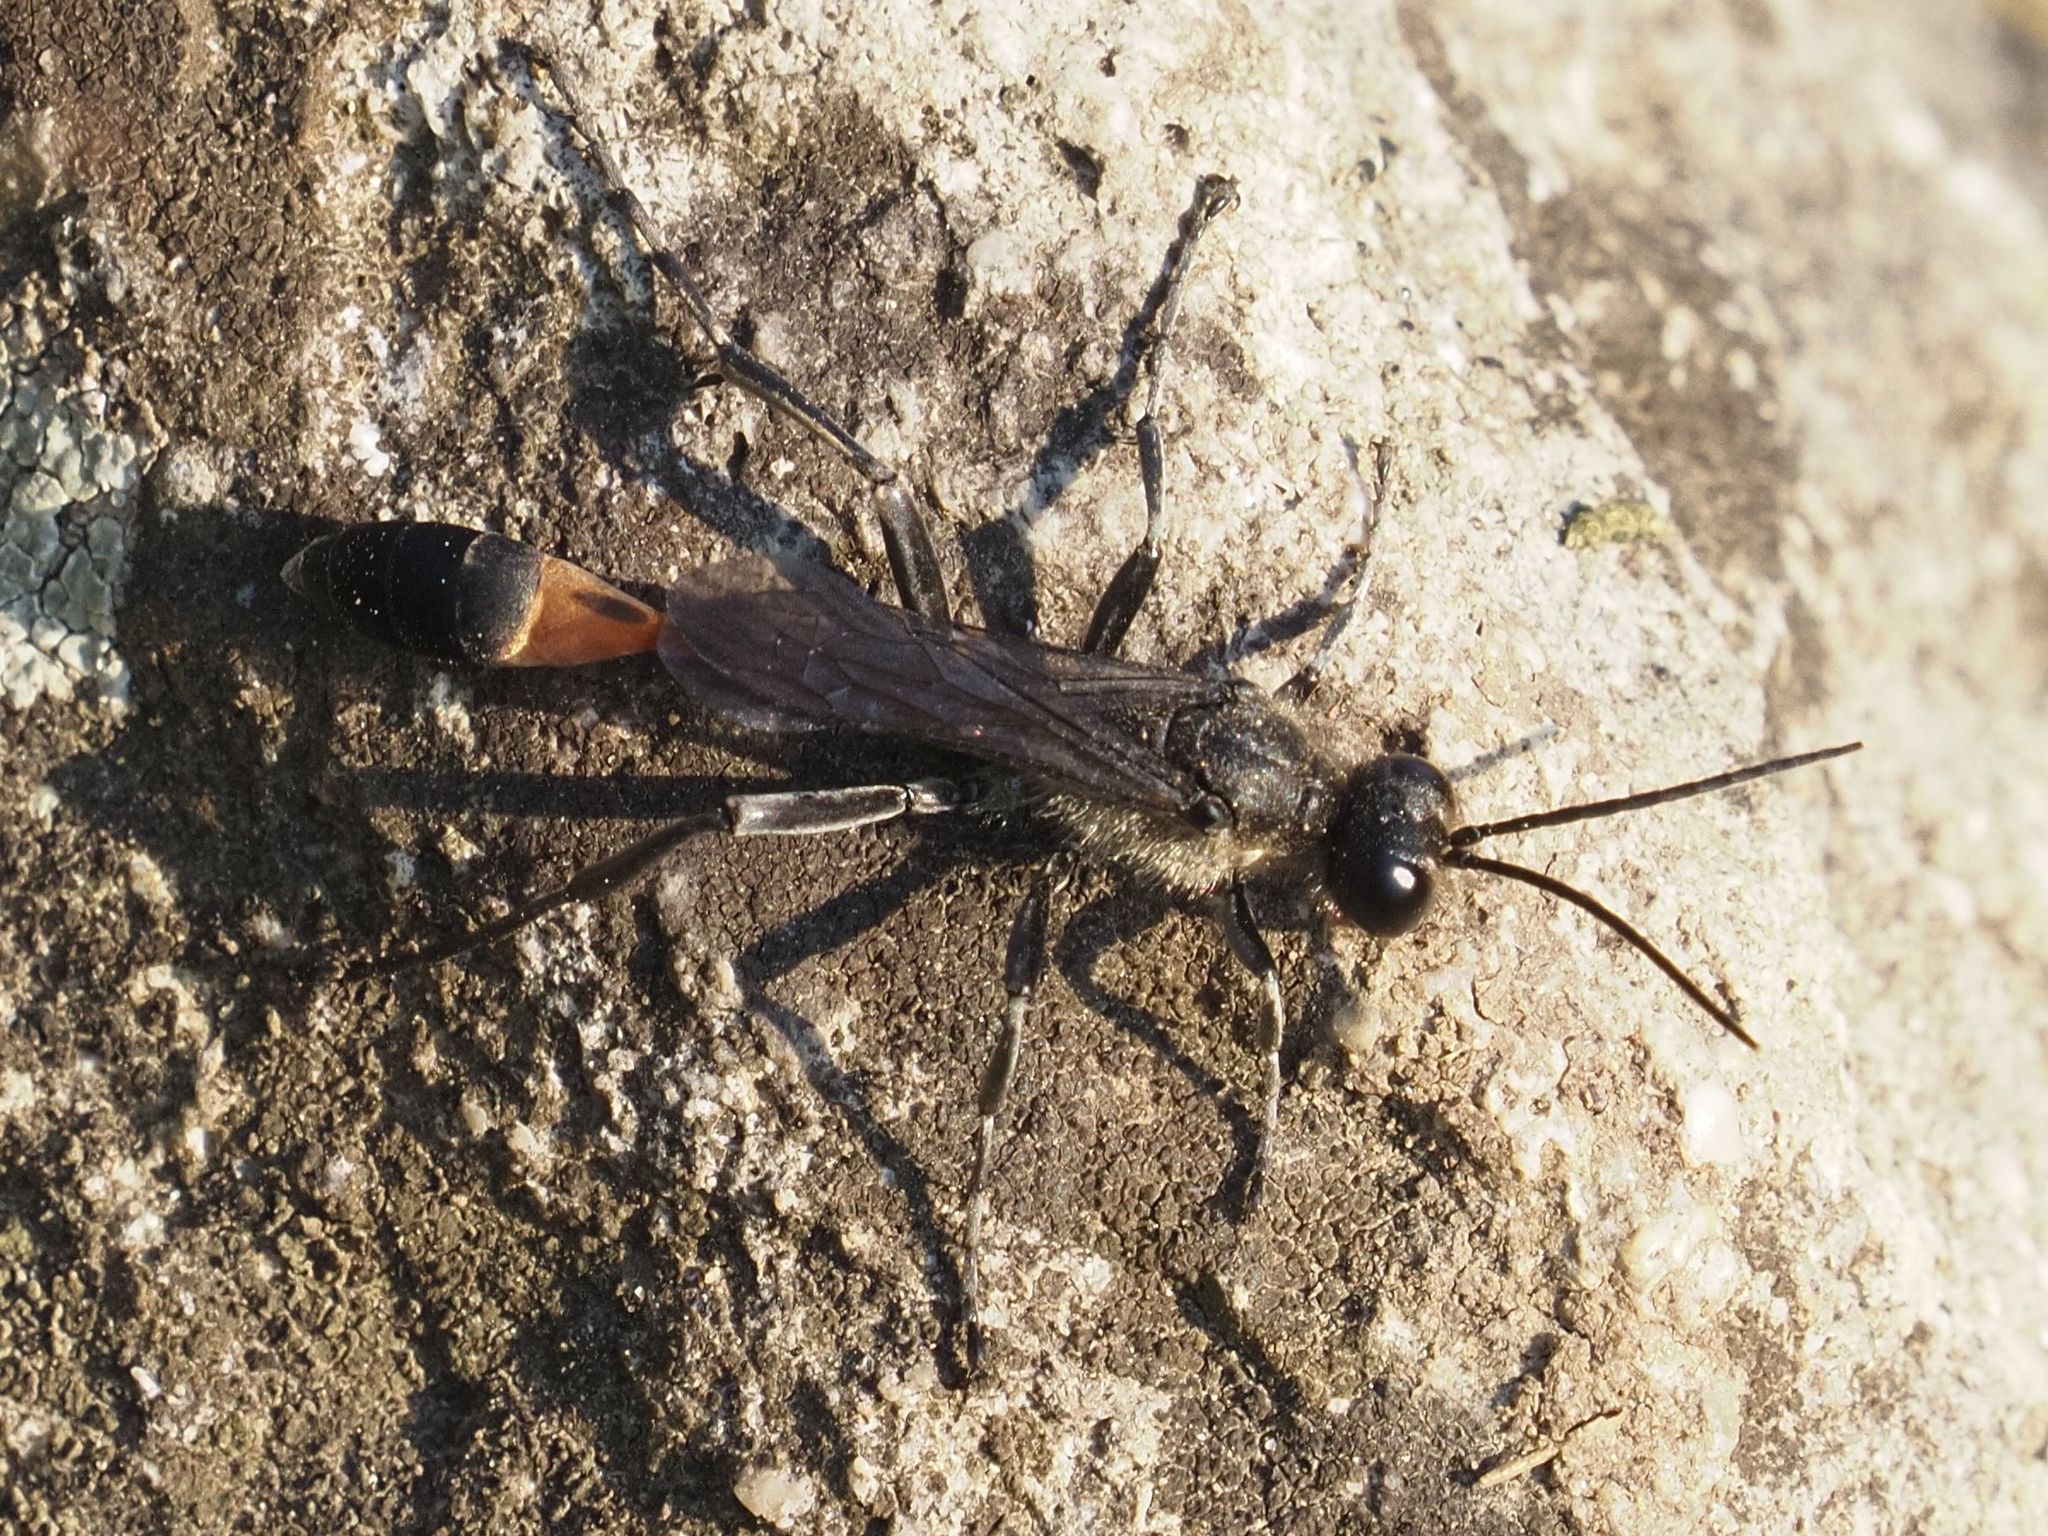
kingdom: Animalia
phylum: Arthropoda
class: Insecta
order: Hymenoptera
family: Sphecidae
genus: Ammophila
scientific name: Ammophila sabulosa
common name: Red banded sand wasp
